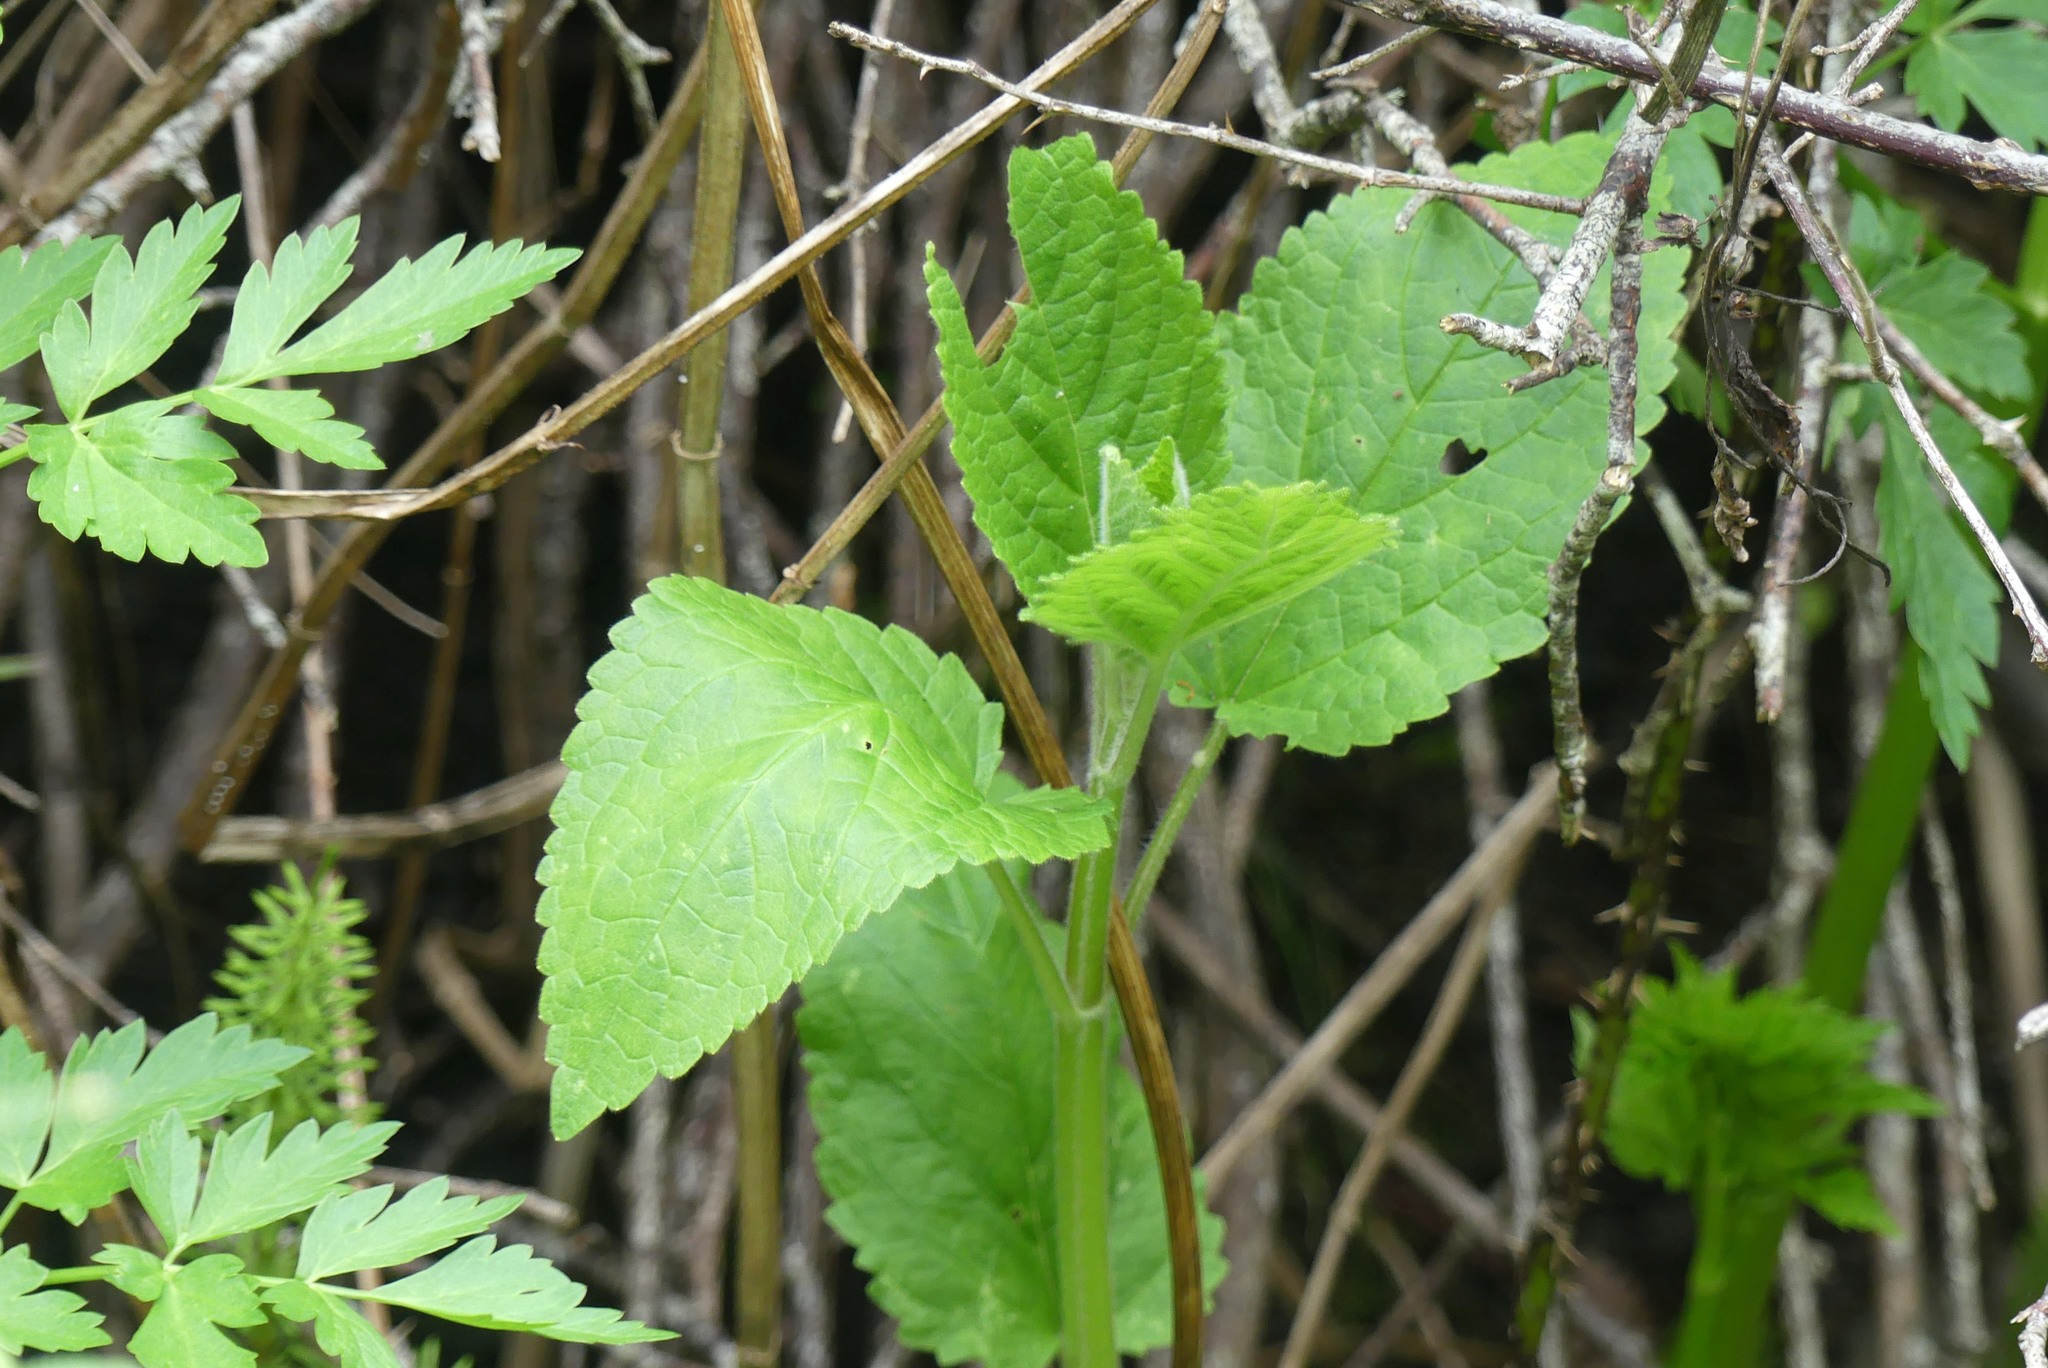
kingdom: Plantae
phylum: Tracheophyta
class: Magnoliopsida
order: Lamiales
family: Lamiaceae
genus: Stachys
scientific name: Stachys chamissonis
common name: Coastal hedge-nettle
